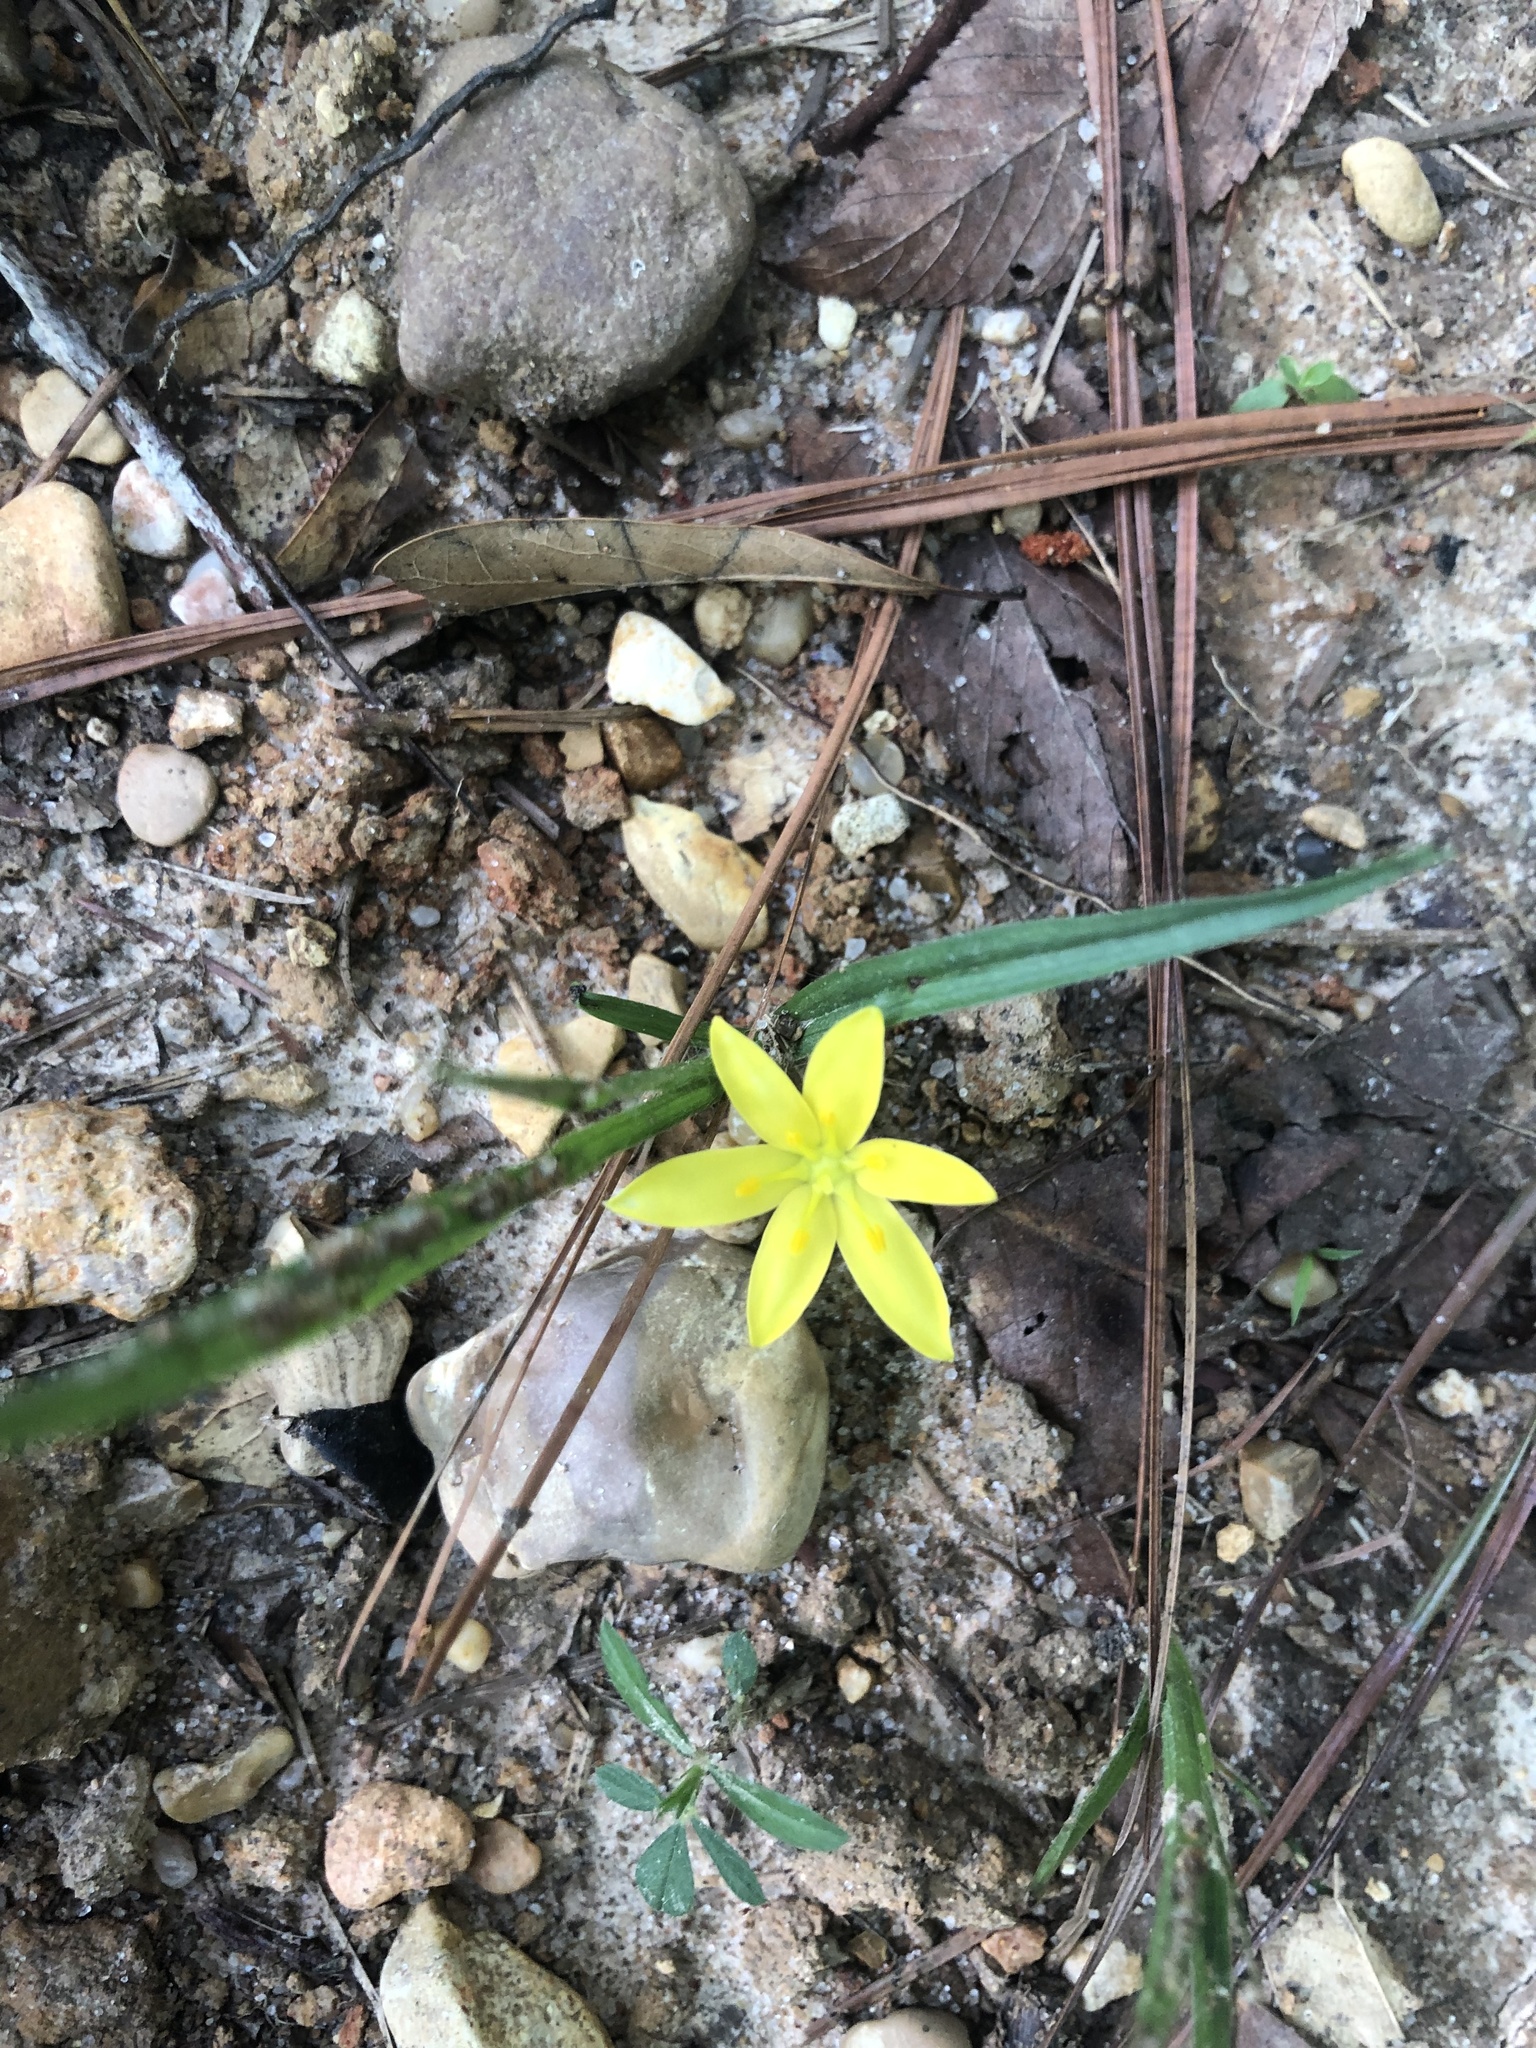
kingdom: Plantae
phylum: Tracheophyta
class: Liliopsida
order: Asparagales
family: Hypoxidaceae
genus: Hypoxis
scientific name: Hypoxis hirsuta
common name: Common goldstar
